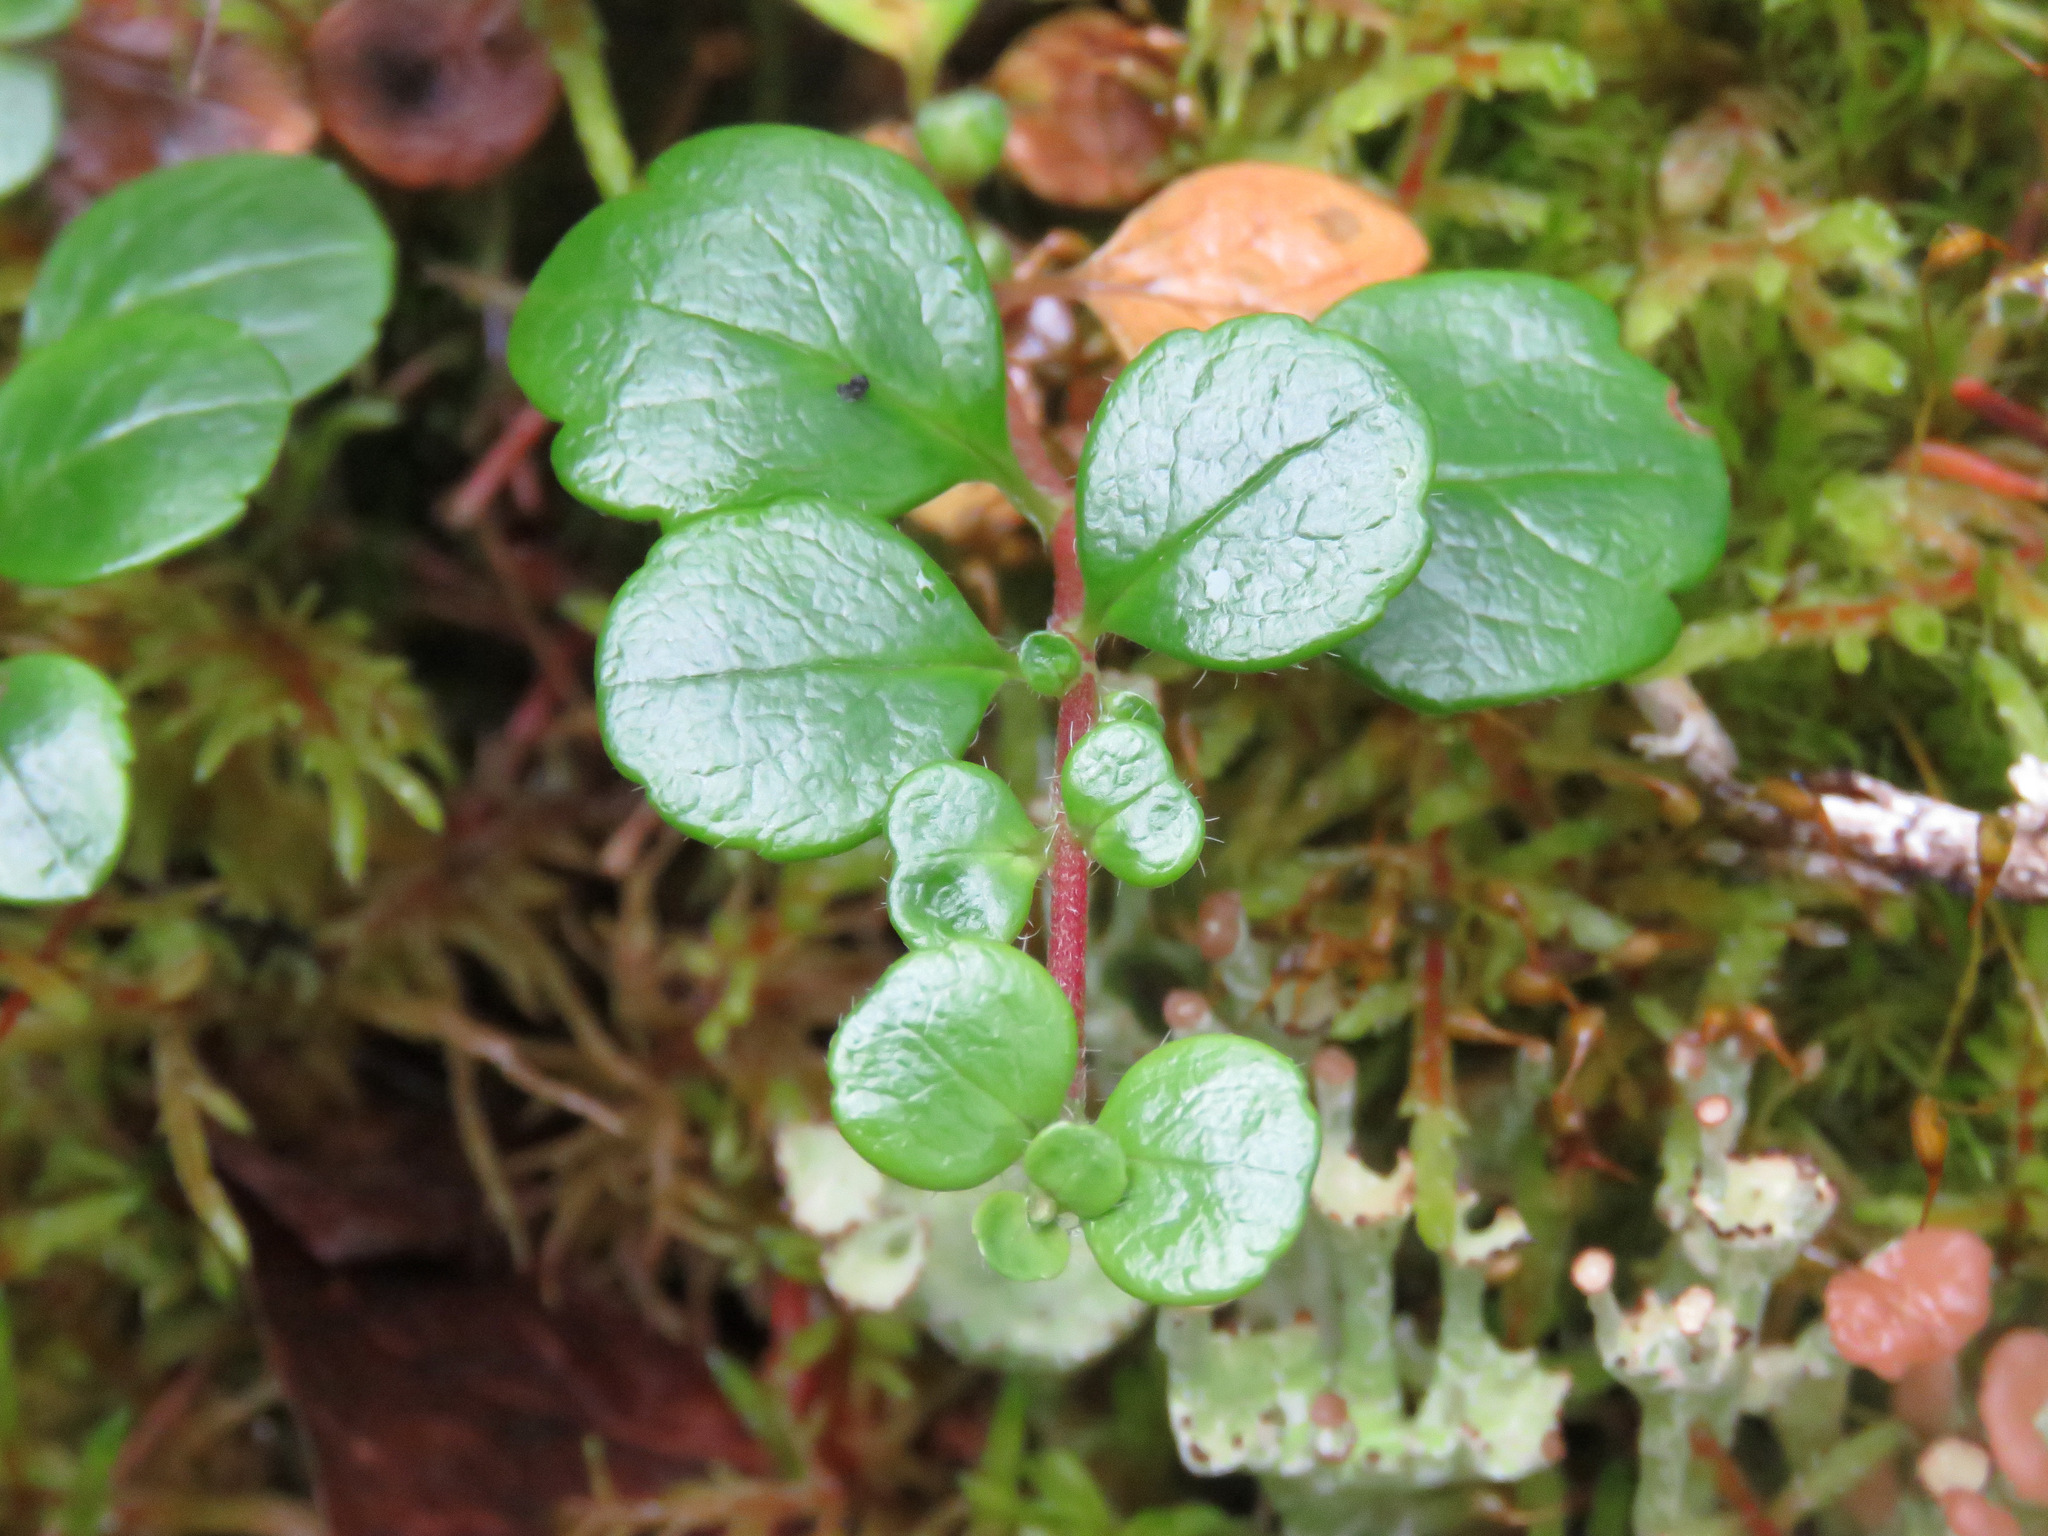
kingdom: Plantae
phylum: Tracheophyta
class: Magnoliopsida
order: Dipsacales
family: Caprifoliaceae
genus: Linnaea
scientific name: Linnaea borealis
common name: Twinflower
